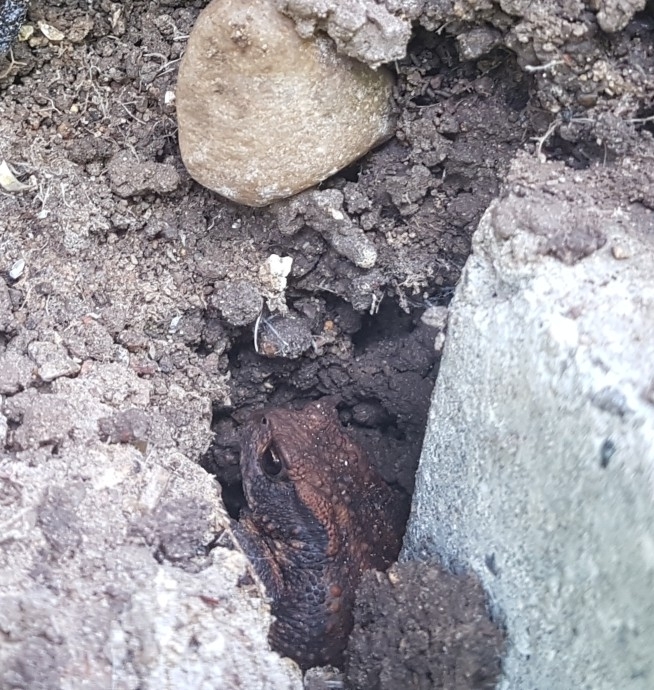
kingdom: Animalia
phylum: Chordata
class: Amphibia
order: Anura
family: Bufonidae
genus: Bufo
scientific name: Bufo bufo
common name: Common toad
